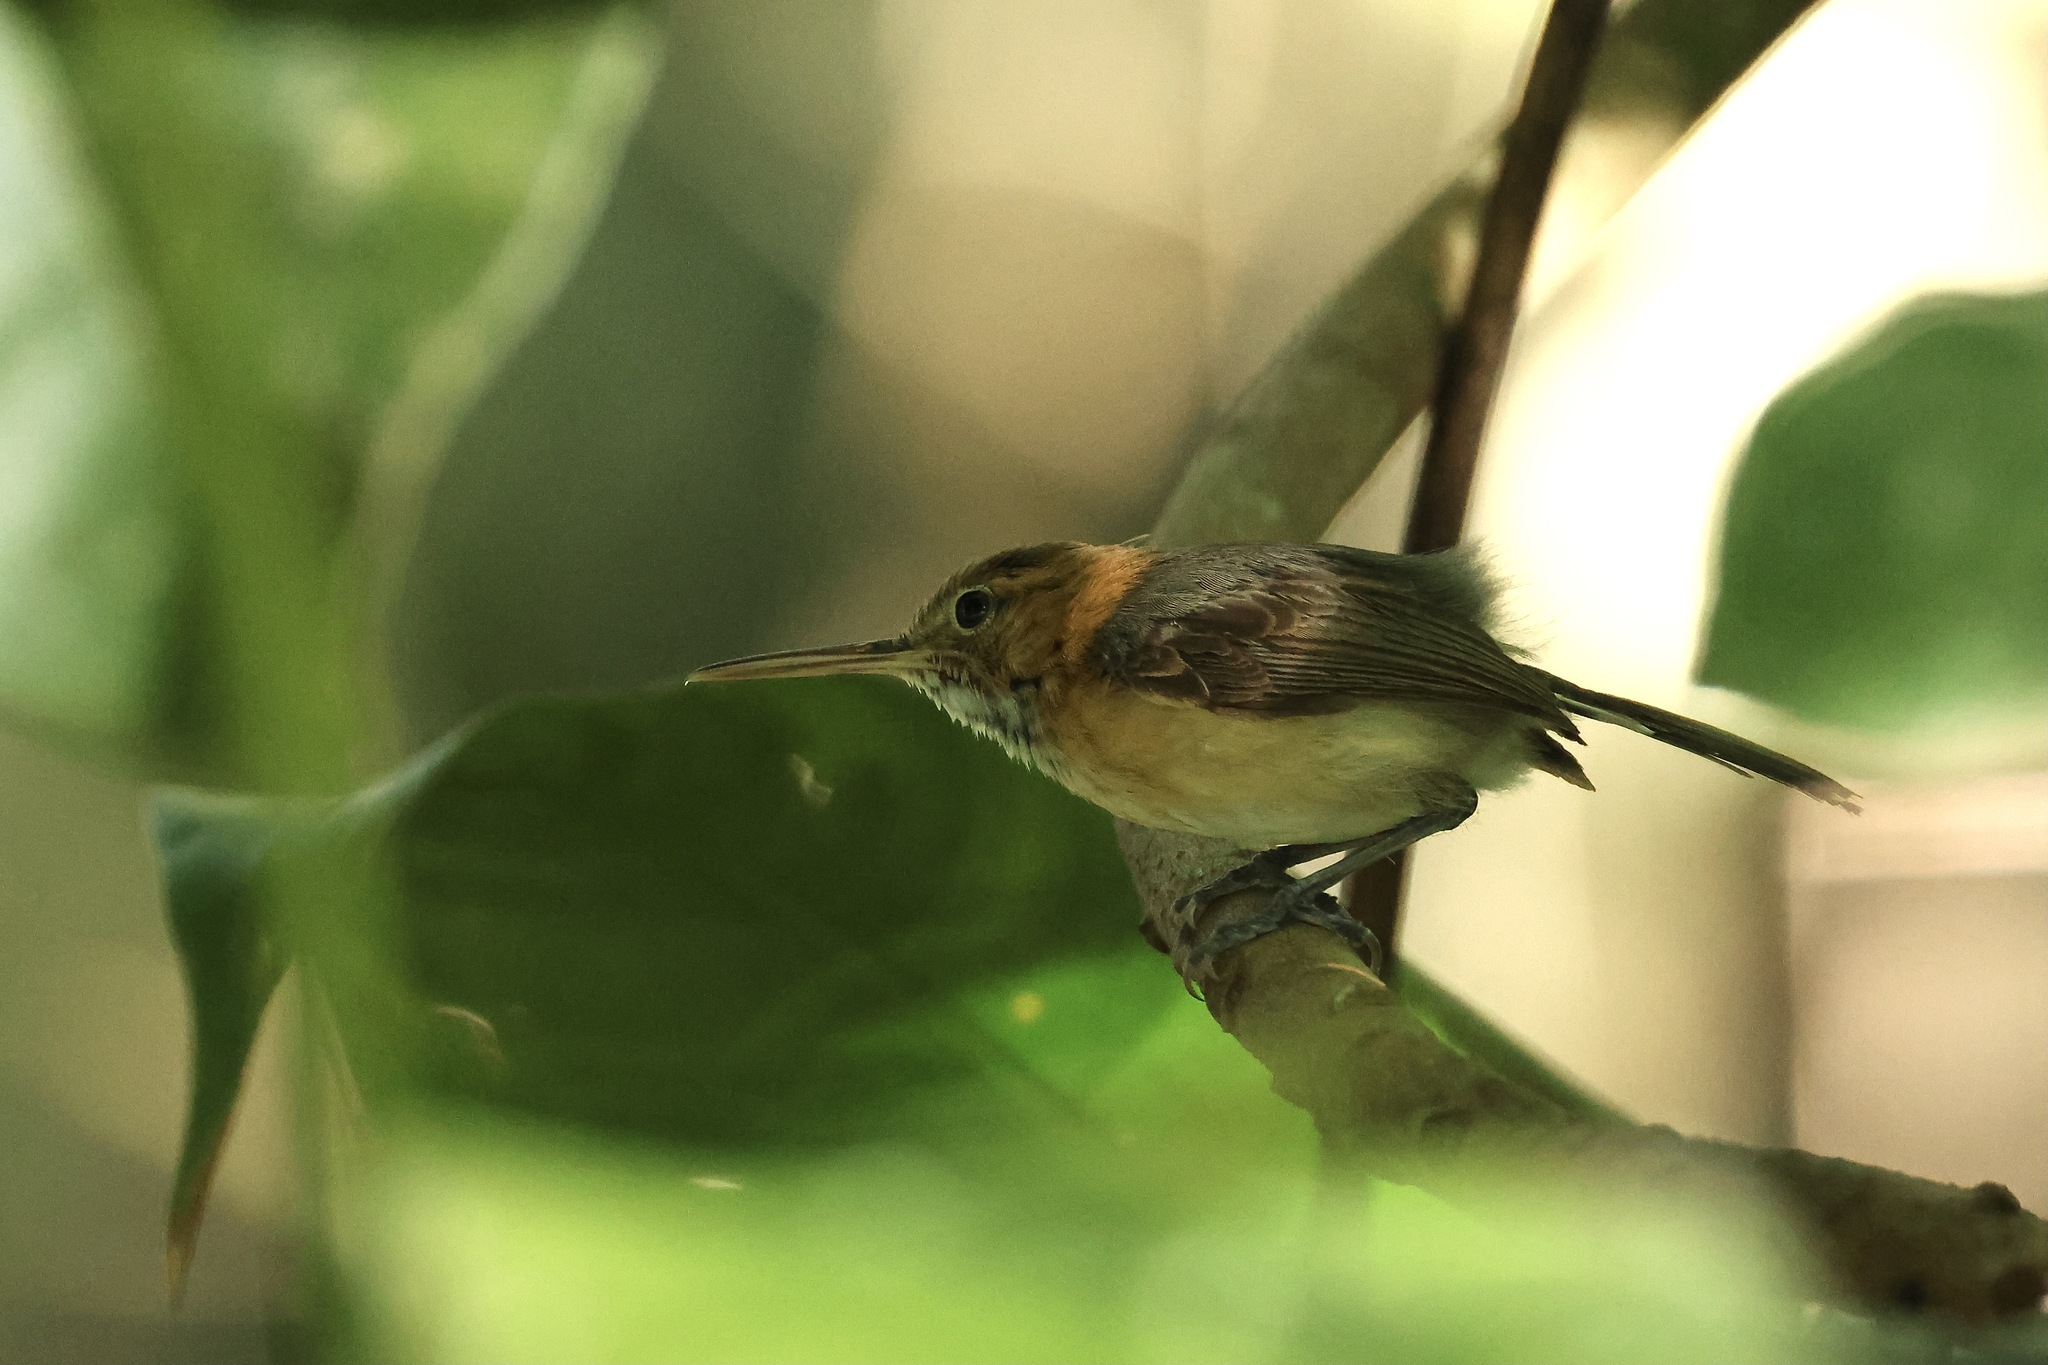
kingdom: Animalia
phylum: Chordata
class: Aves
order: Passeriformes
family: Polioptilidae
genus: Ramphocaenus
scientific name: Ramphocaenus melanurus
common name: Long-billed gnatwren
